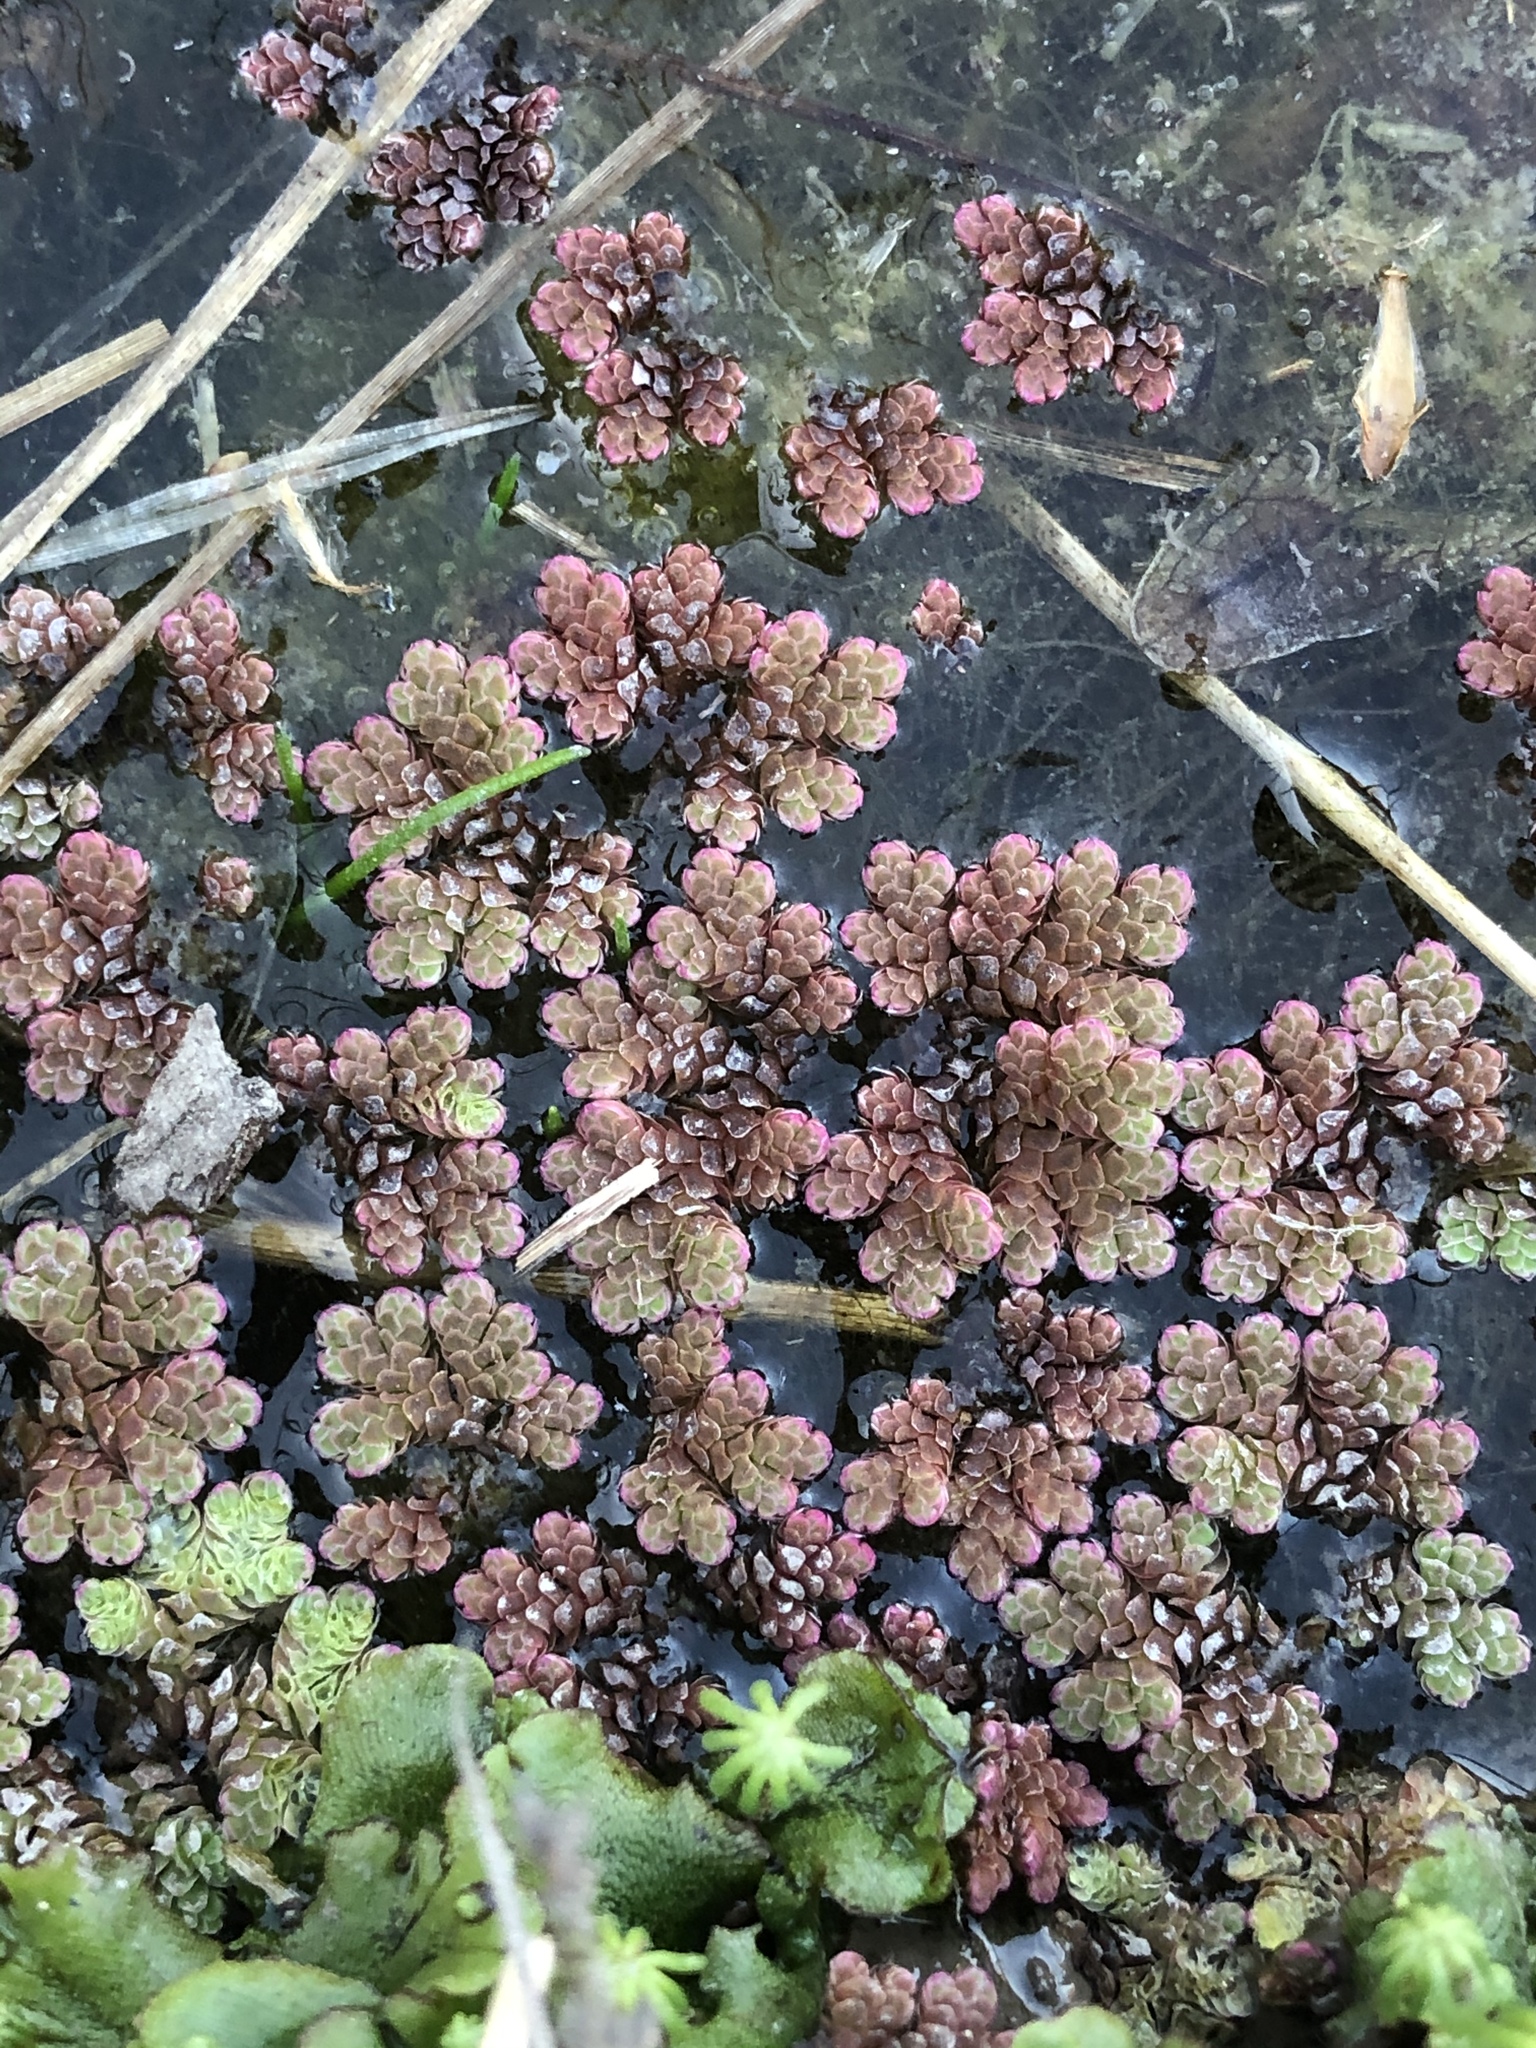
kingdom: Plantae
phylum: Tracheophyta
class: Polypodiopsida
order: Salviniales
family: Salviniaceae
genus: Azolla
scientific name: Azolla rubra
